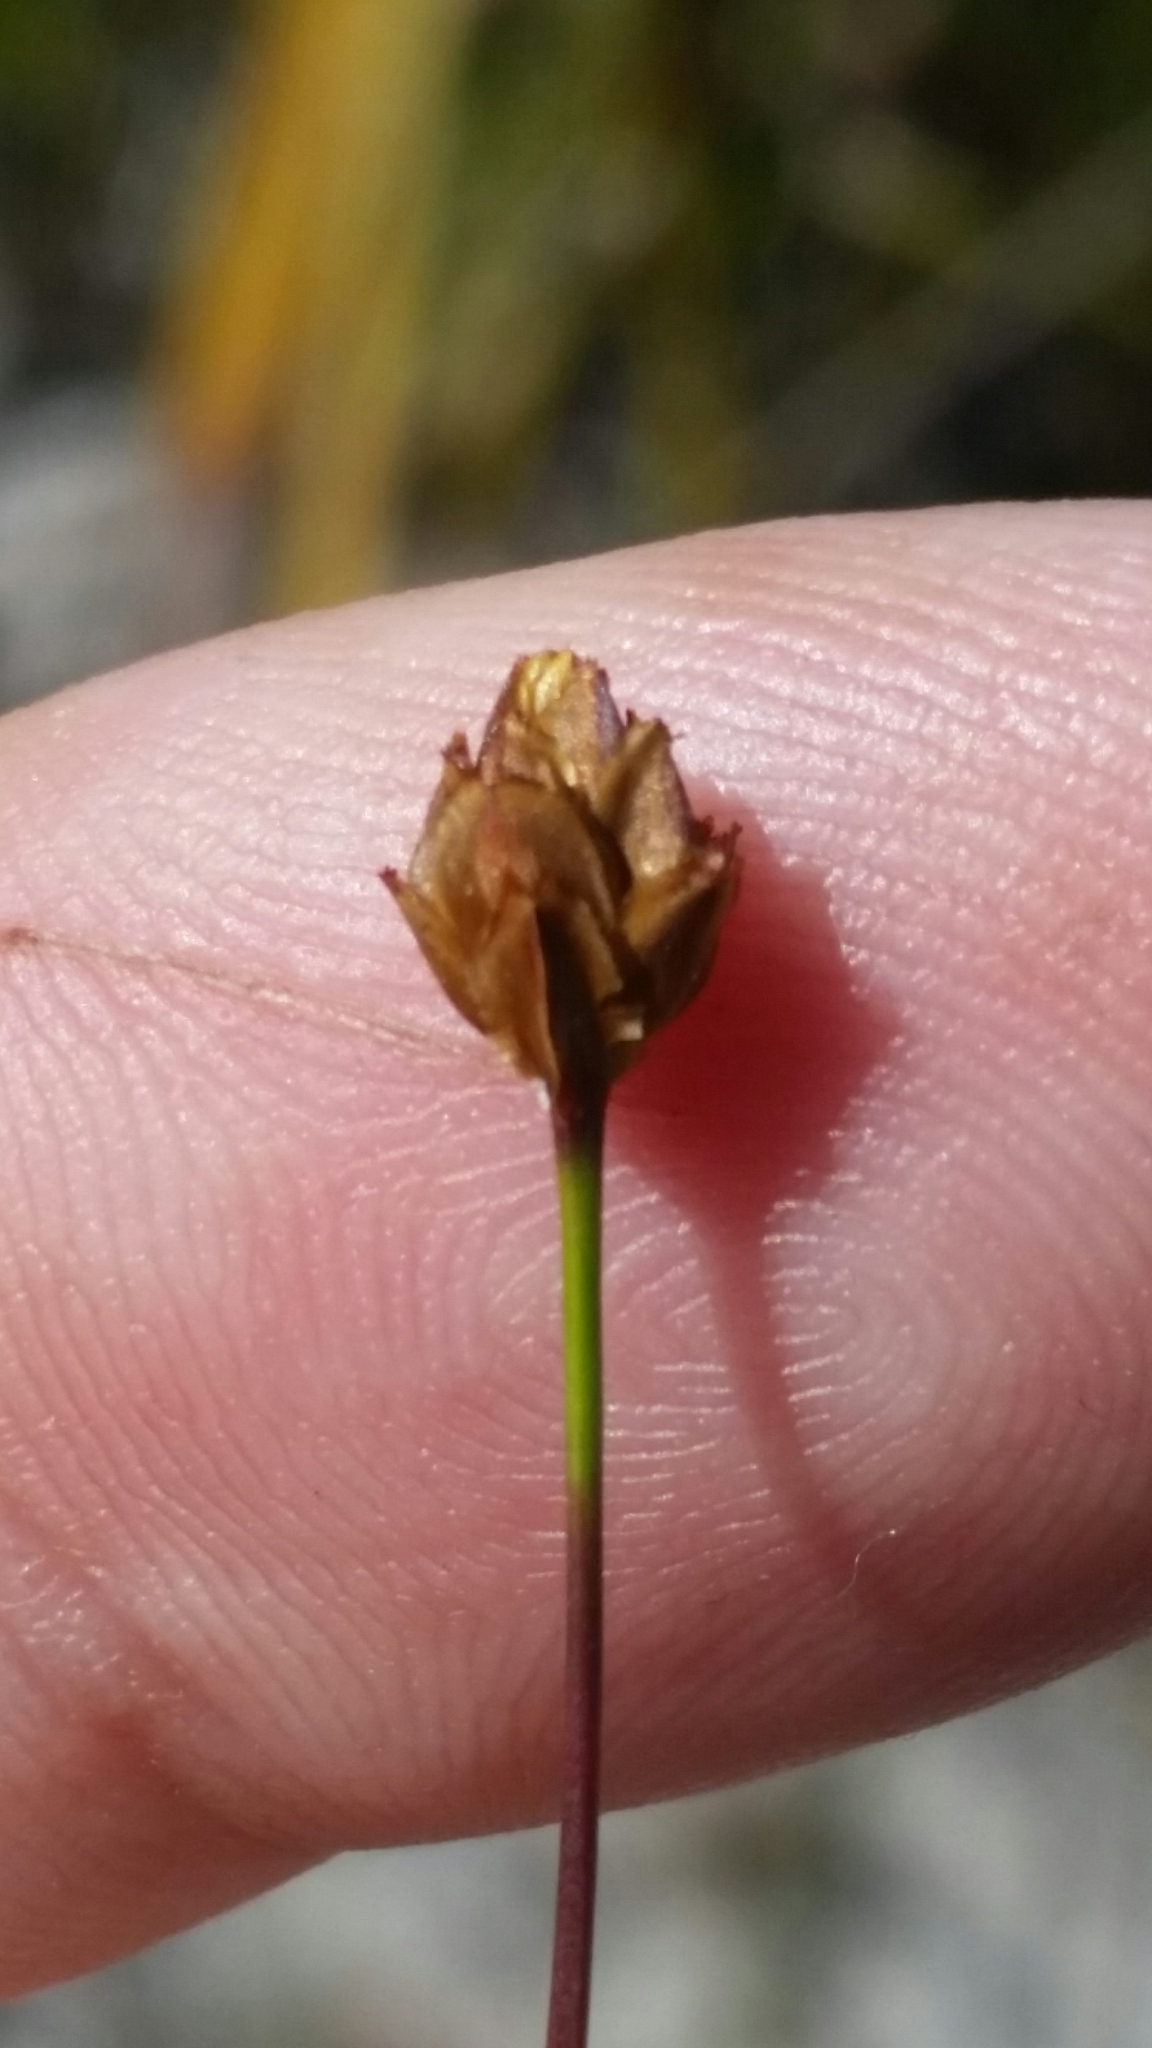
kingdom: Plantae
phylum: Tracheophyta
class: Liliopsida
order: Poales
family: Xyridaceae
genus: Xyris
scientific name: Xyris brevifolia
